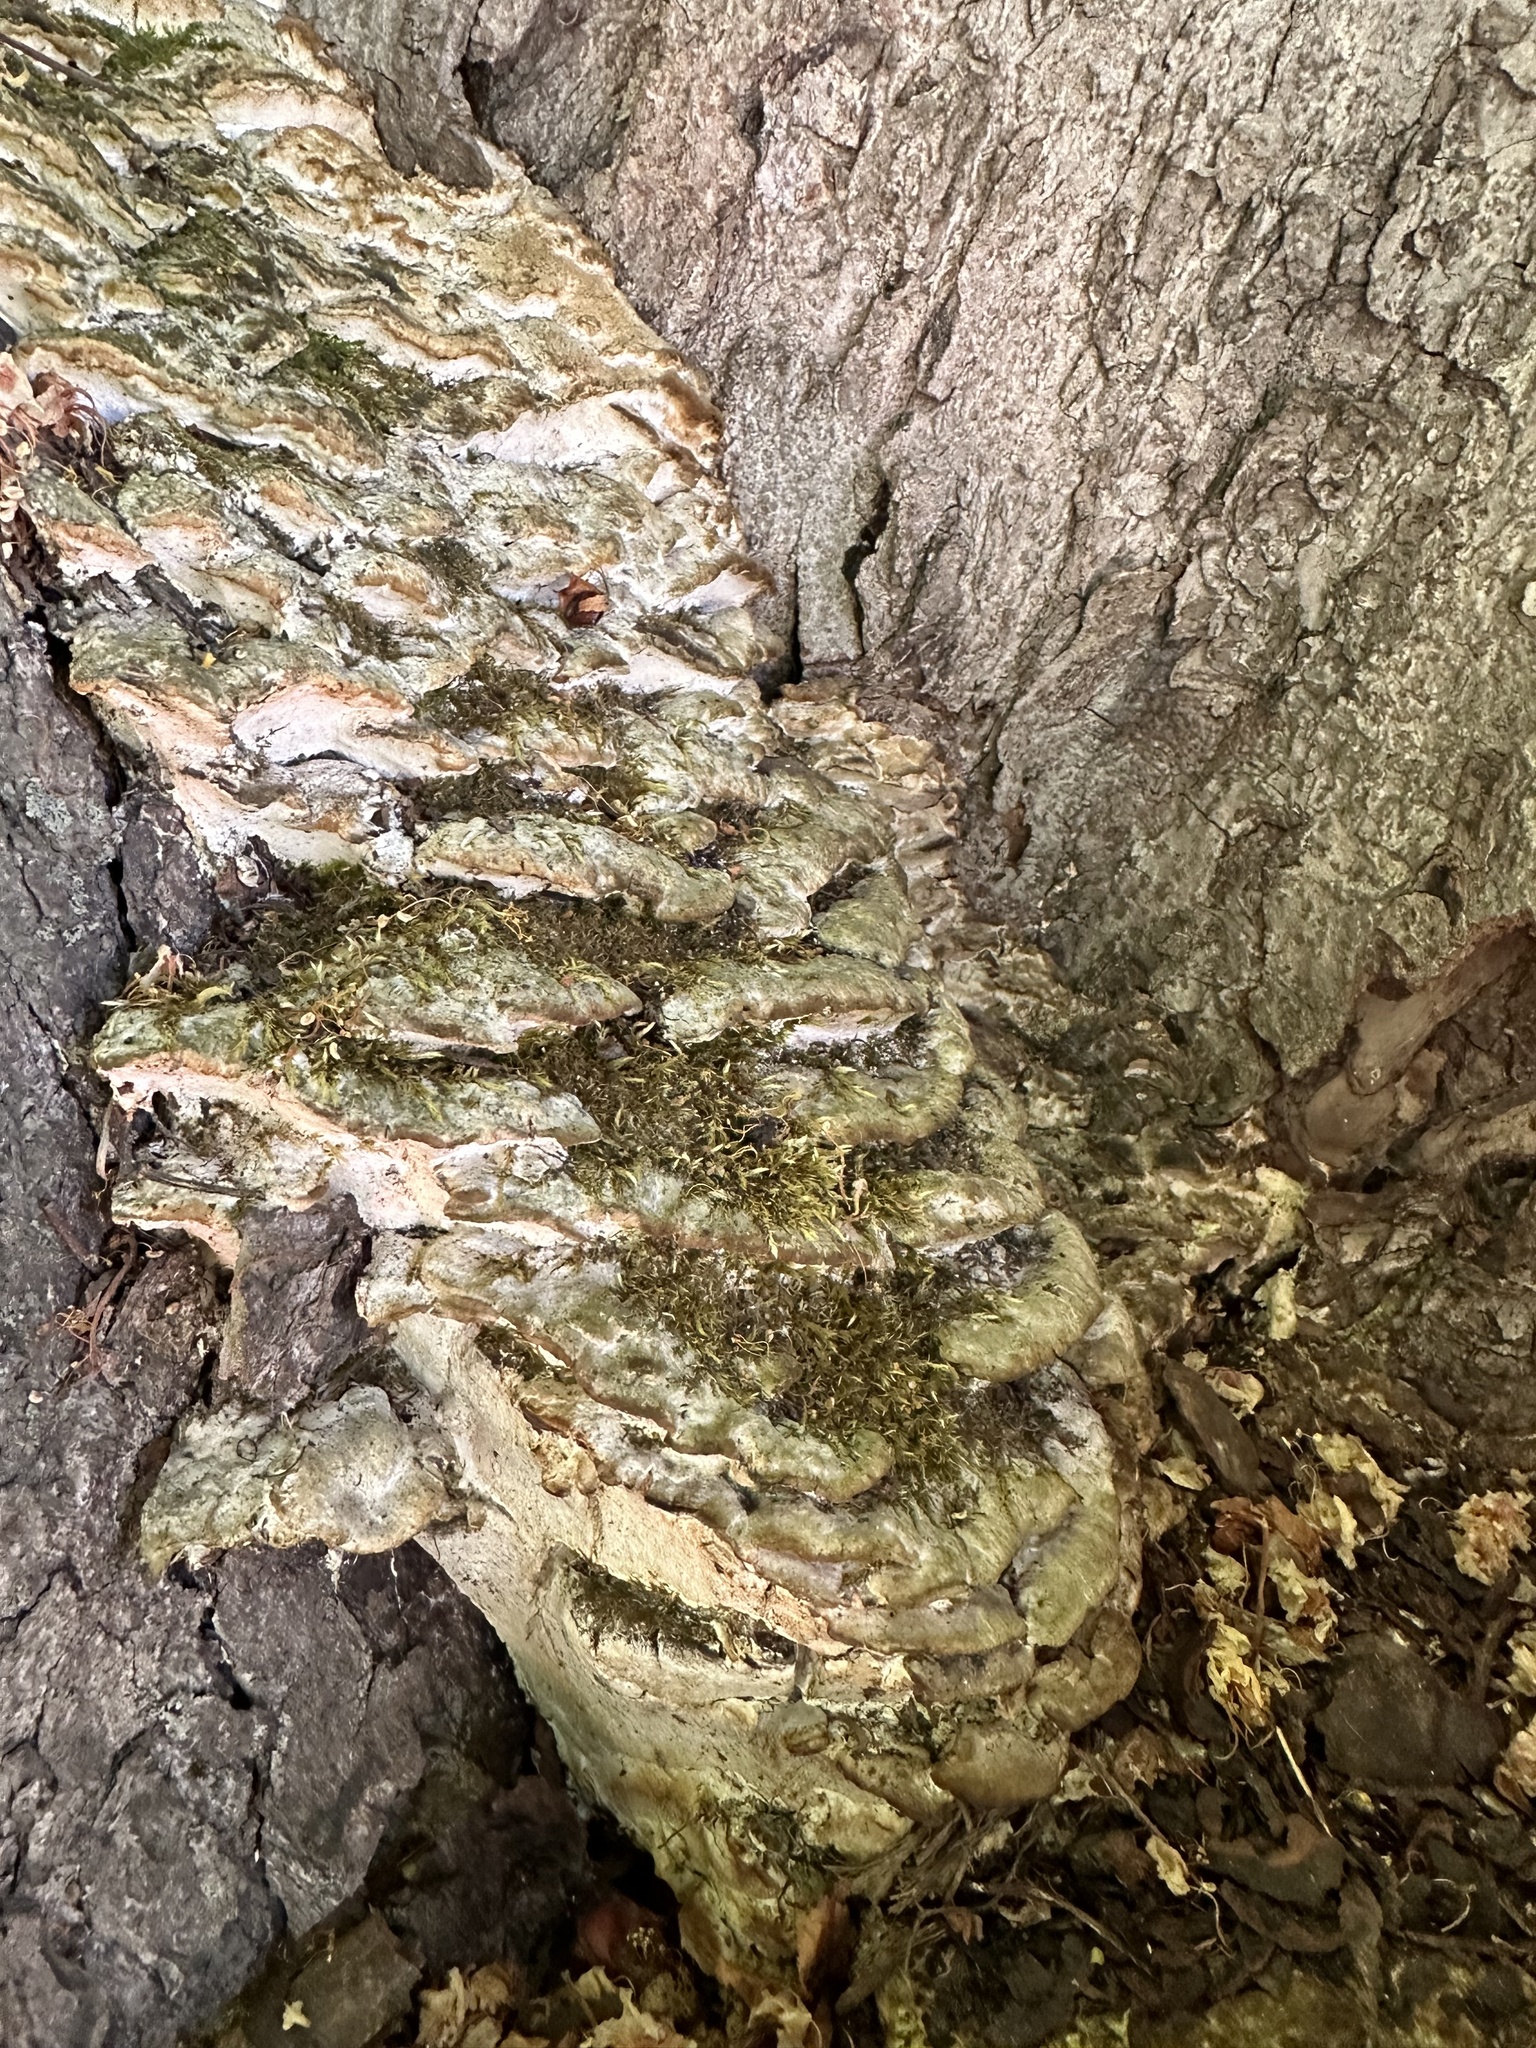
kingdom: Fungi
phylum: Basidiomycota
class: Agaricomycetes
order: Hymenochaetales
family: Oxyporaceae
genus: Oxyporus
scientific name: Oxyporus populinus
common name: Poplar bracket
